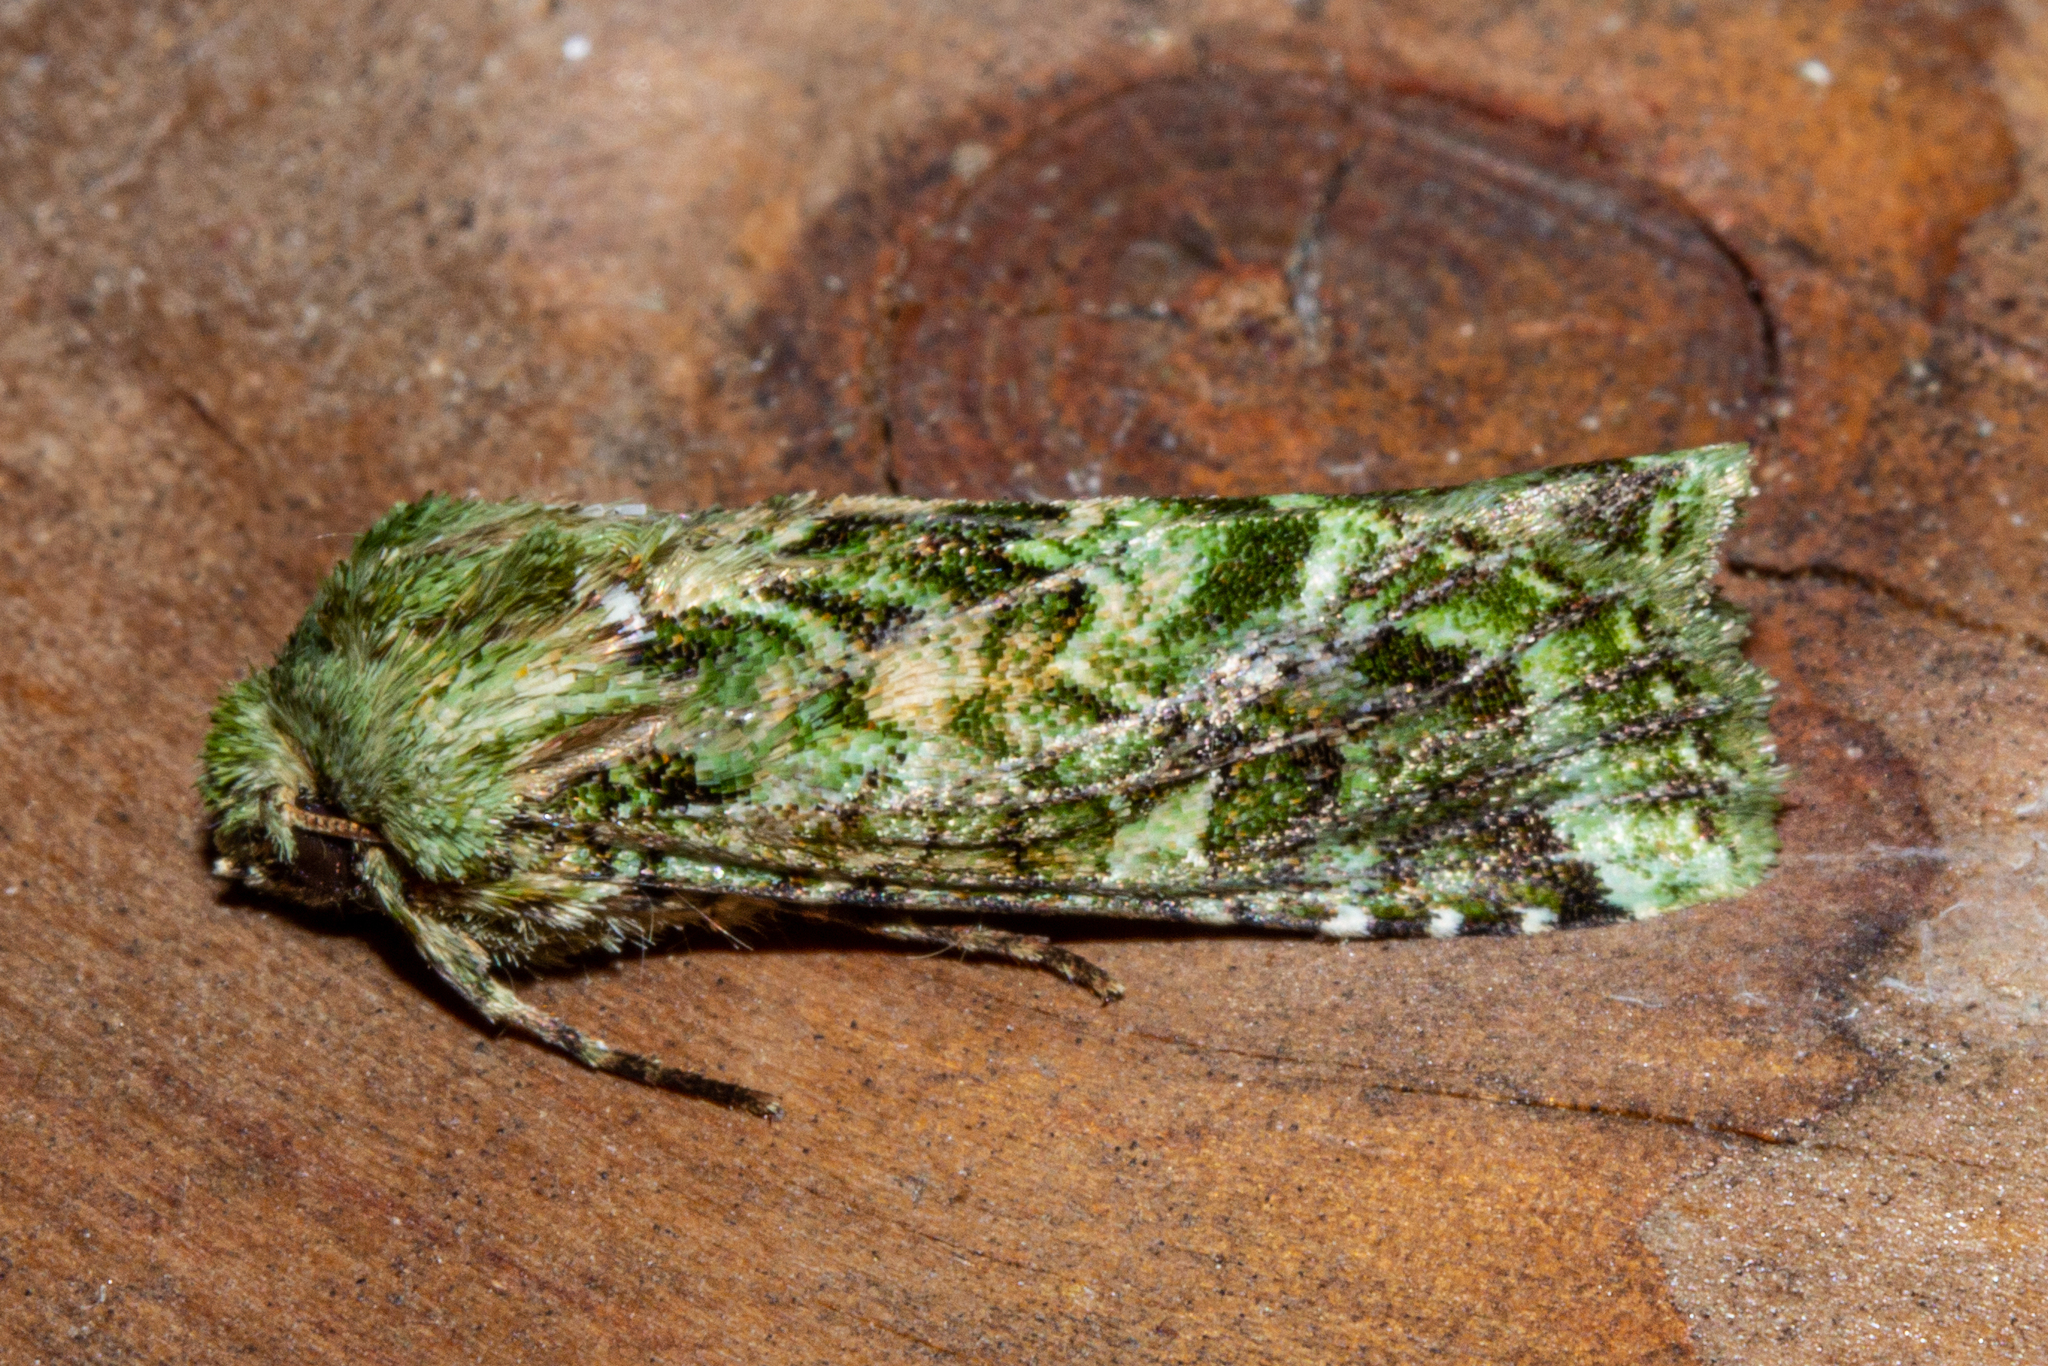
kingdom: Animalia
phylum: Arthropoda
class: Insecta
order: Lepidoptera
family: Noctuidae
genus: Feredayia
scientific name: Feredayia grammosa
